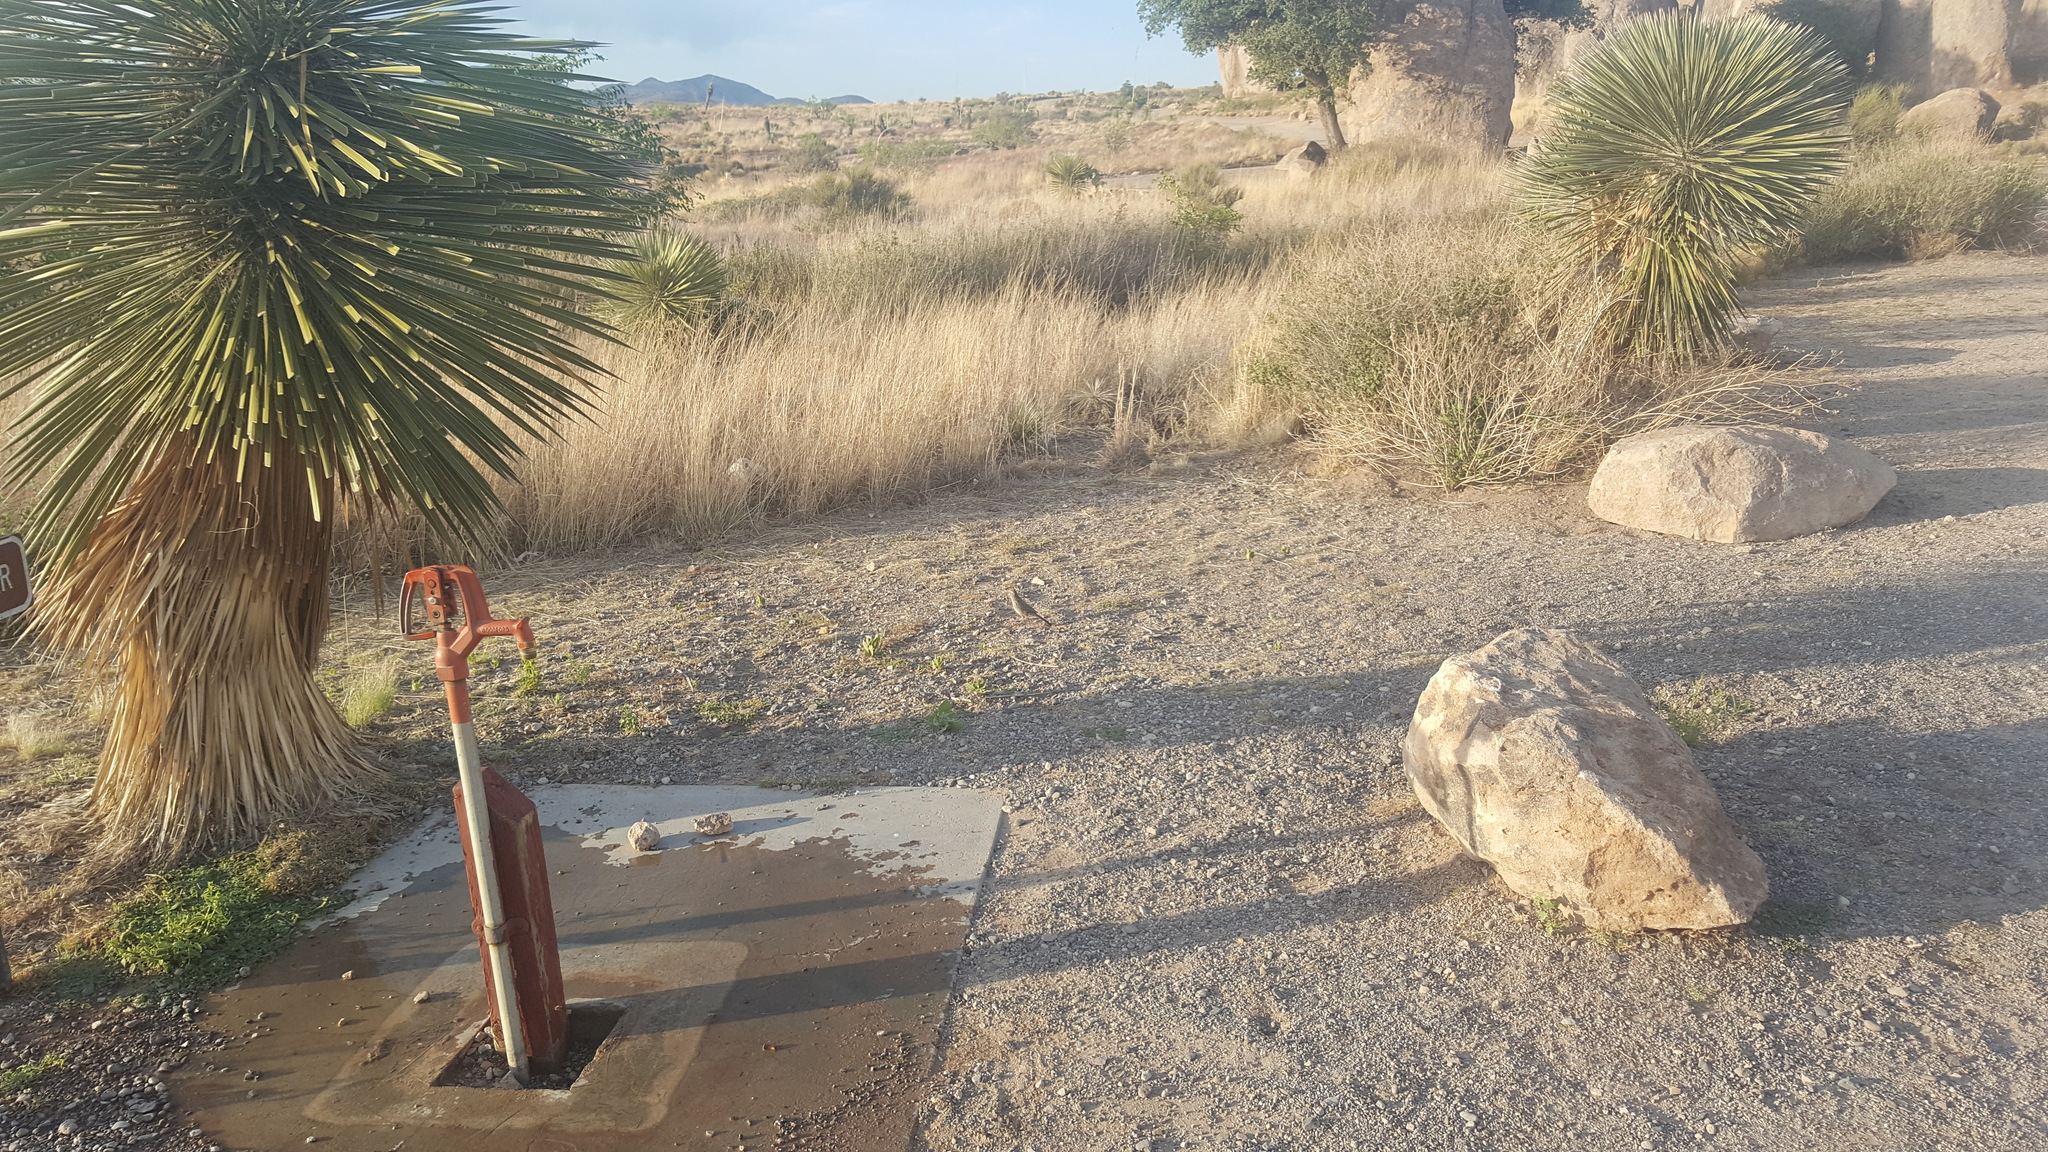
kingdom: Animalia
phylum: Chordata
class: Aves
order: Passeriformes
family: Passerellidae
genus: Melozone
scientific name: Melozone fusca
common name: Canyon towhee
